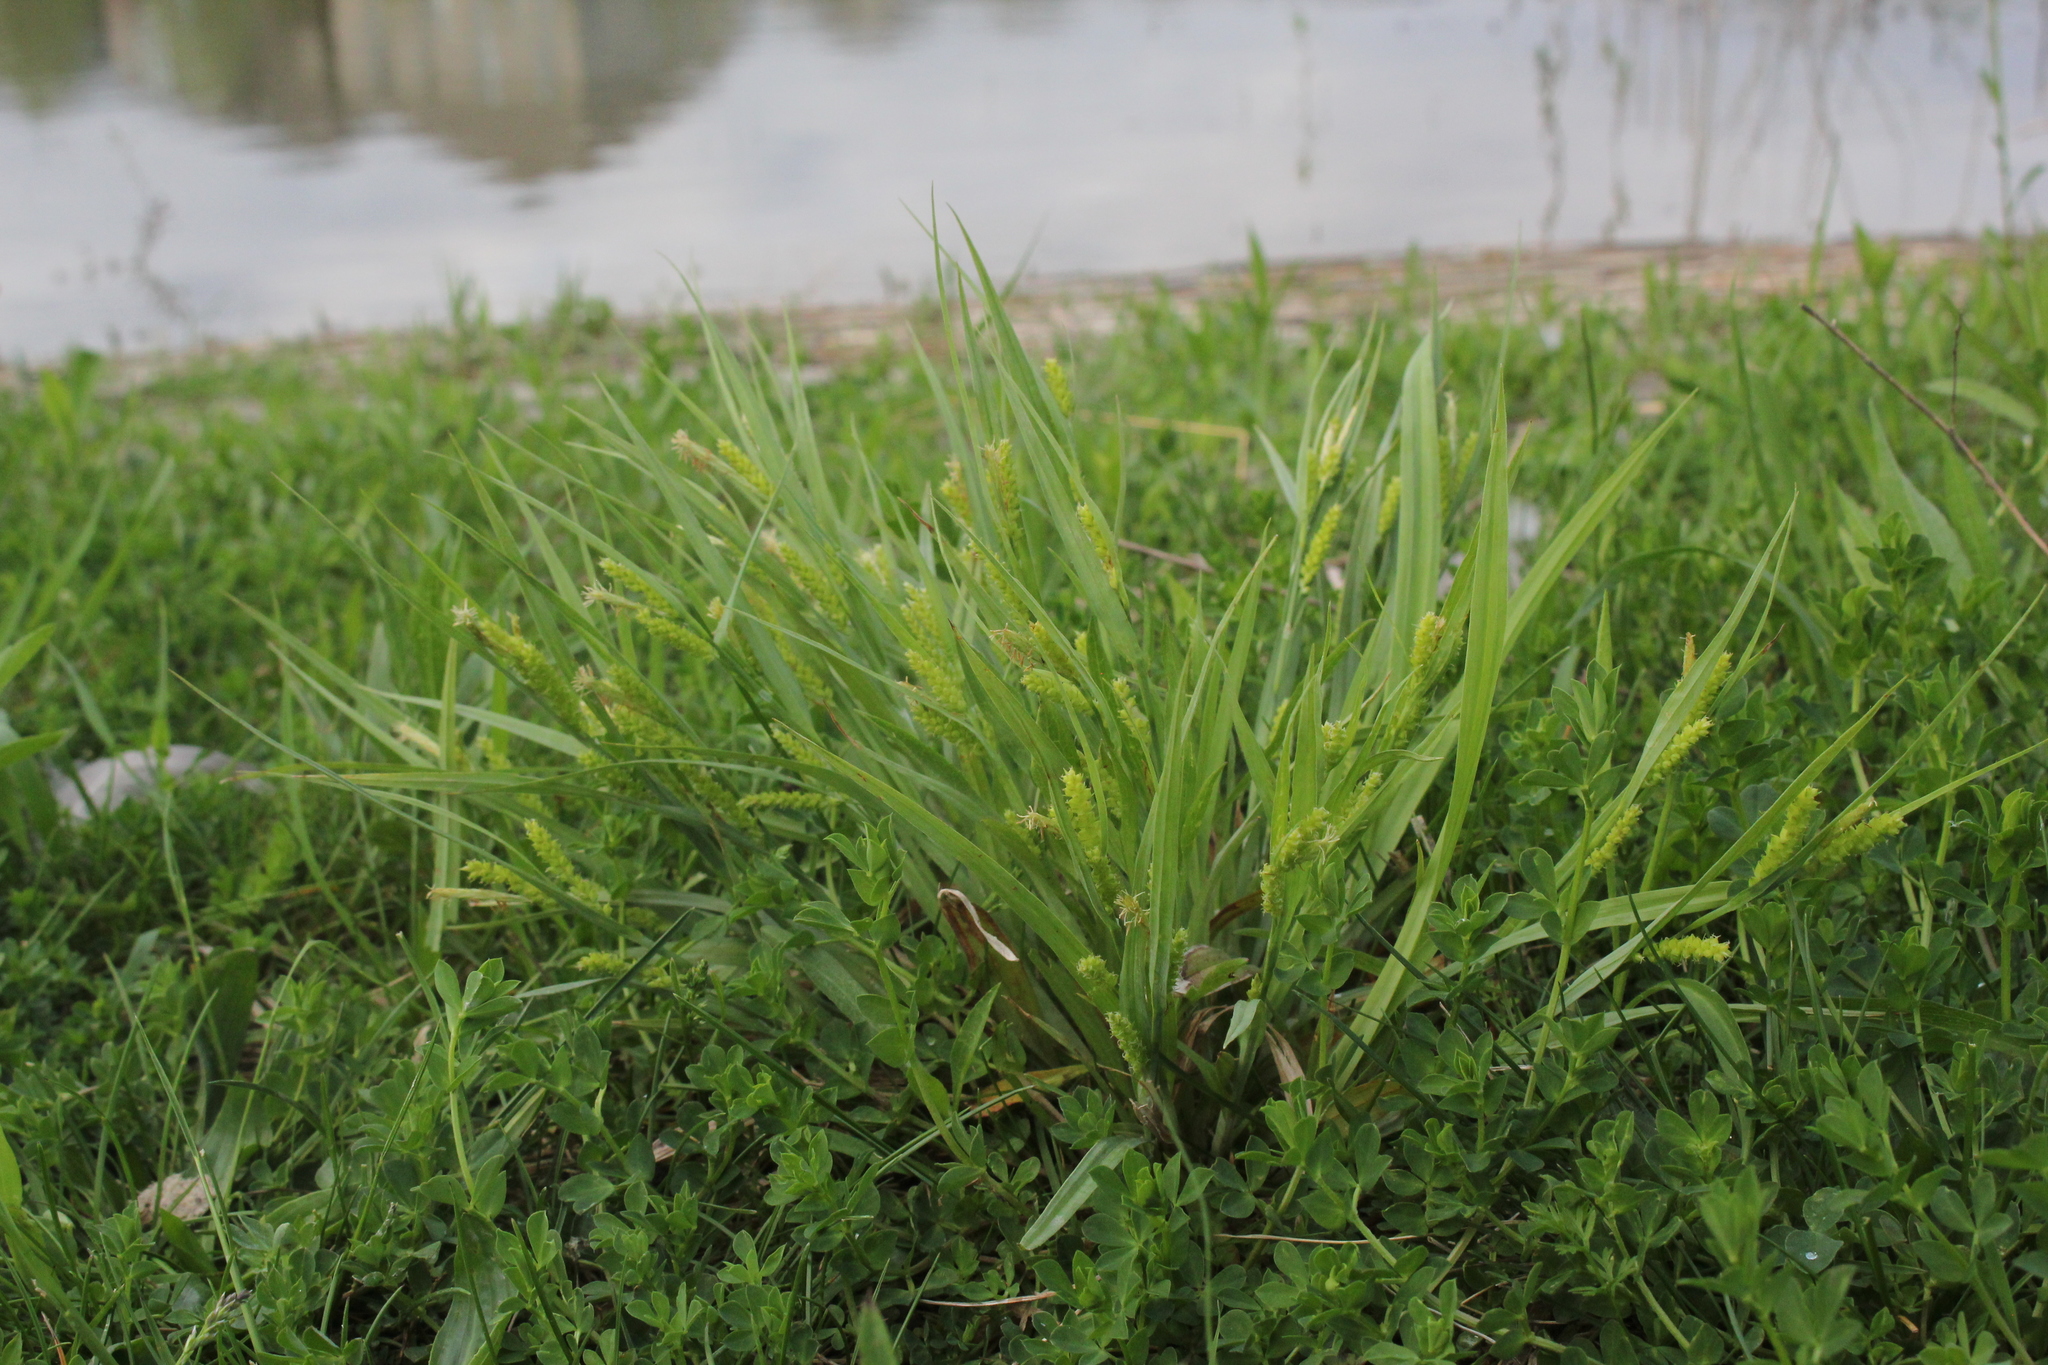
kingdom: Plantae
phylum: Tracheophyta
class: Liliopsida
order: Poales
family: Cyperaceae
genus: Carex
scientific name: Carex granularis
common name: Granular sedge
